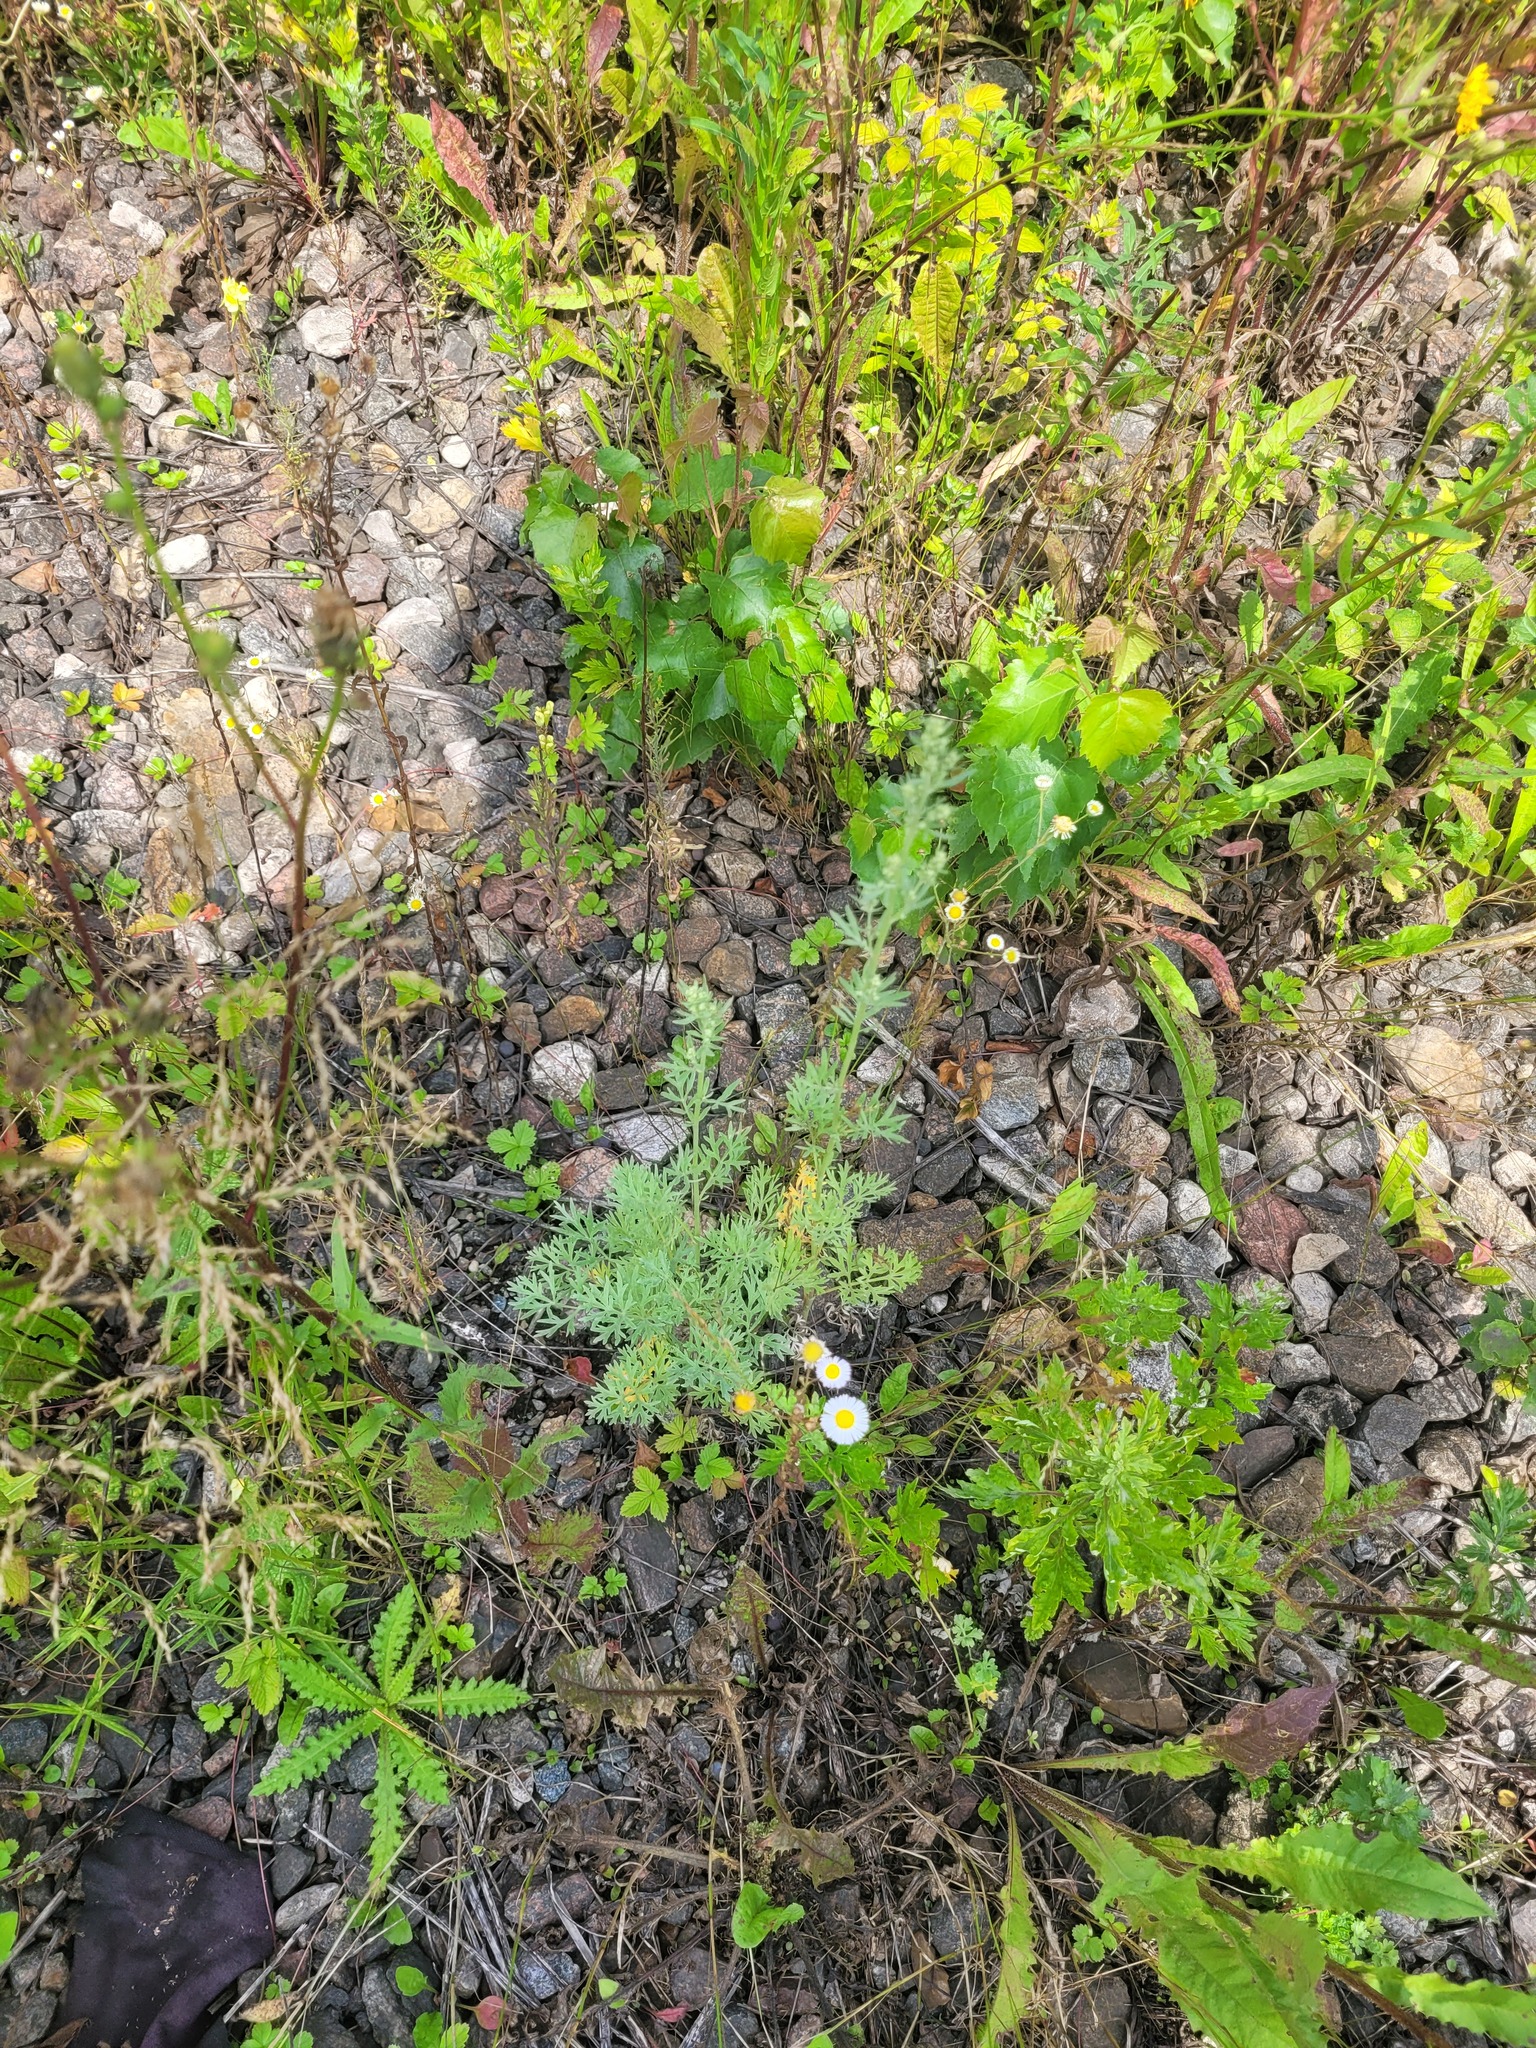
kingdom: Plantae
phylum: Tracheophyta
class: Magnoliopsida
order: Asterales
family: Asteraceae
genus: Artemisia
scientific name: Artemisia absinthium
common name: Wormwood
